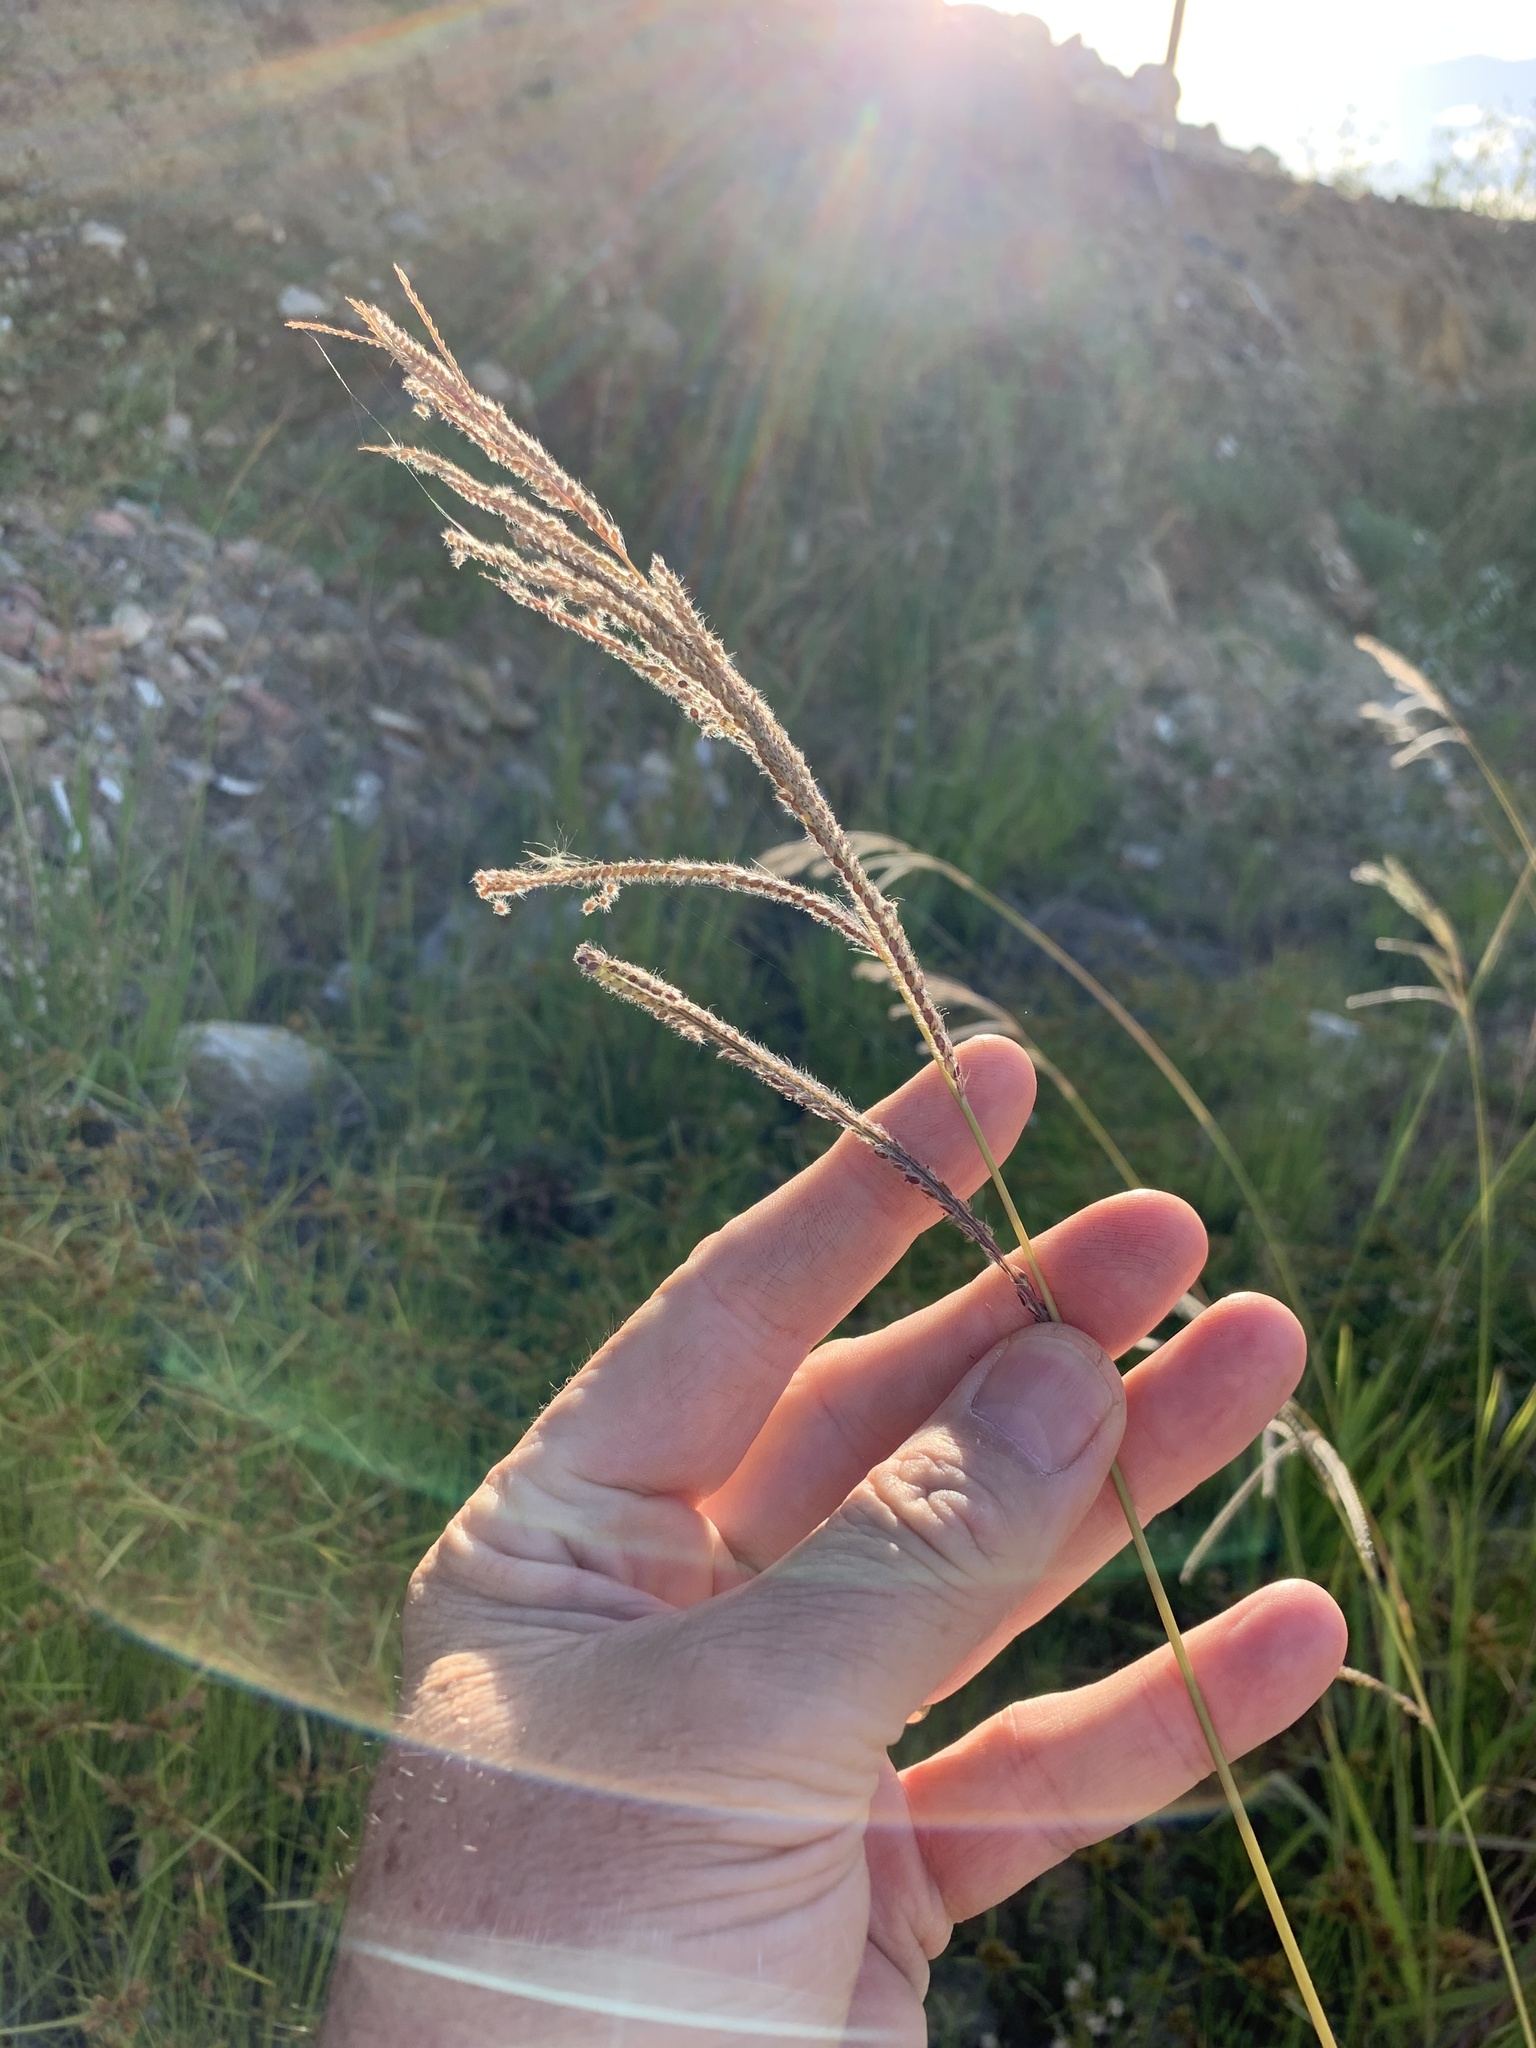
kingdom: Plantae
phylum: Tracheophyta
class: Liliopsida
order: Poales
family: Poaceae
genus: Paspalum
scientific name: Paspalum urvillei
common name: Vasey's grass
